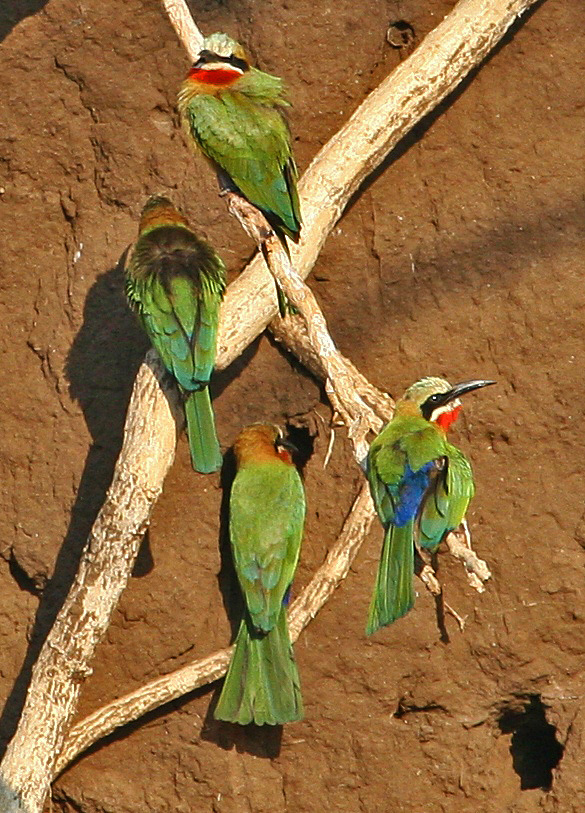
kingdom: Animalia
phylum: Chordata
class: Aves
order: Coraciiformes
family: Meropidae
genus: Merops
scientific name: Merops bullockoides
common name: White-fronted bee-eater
